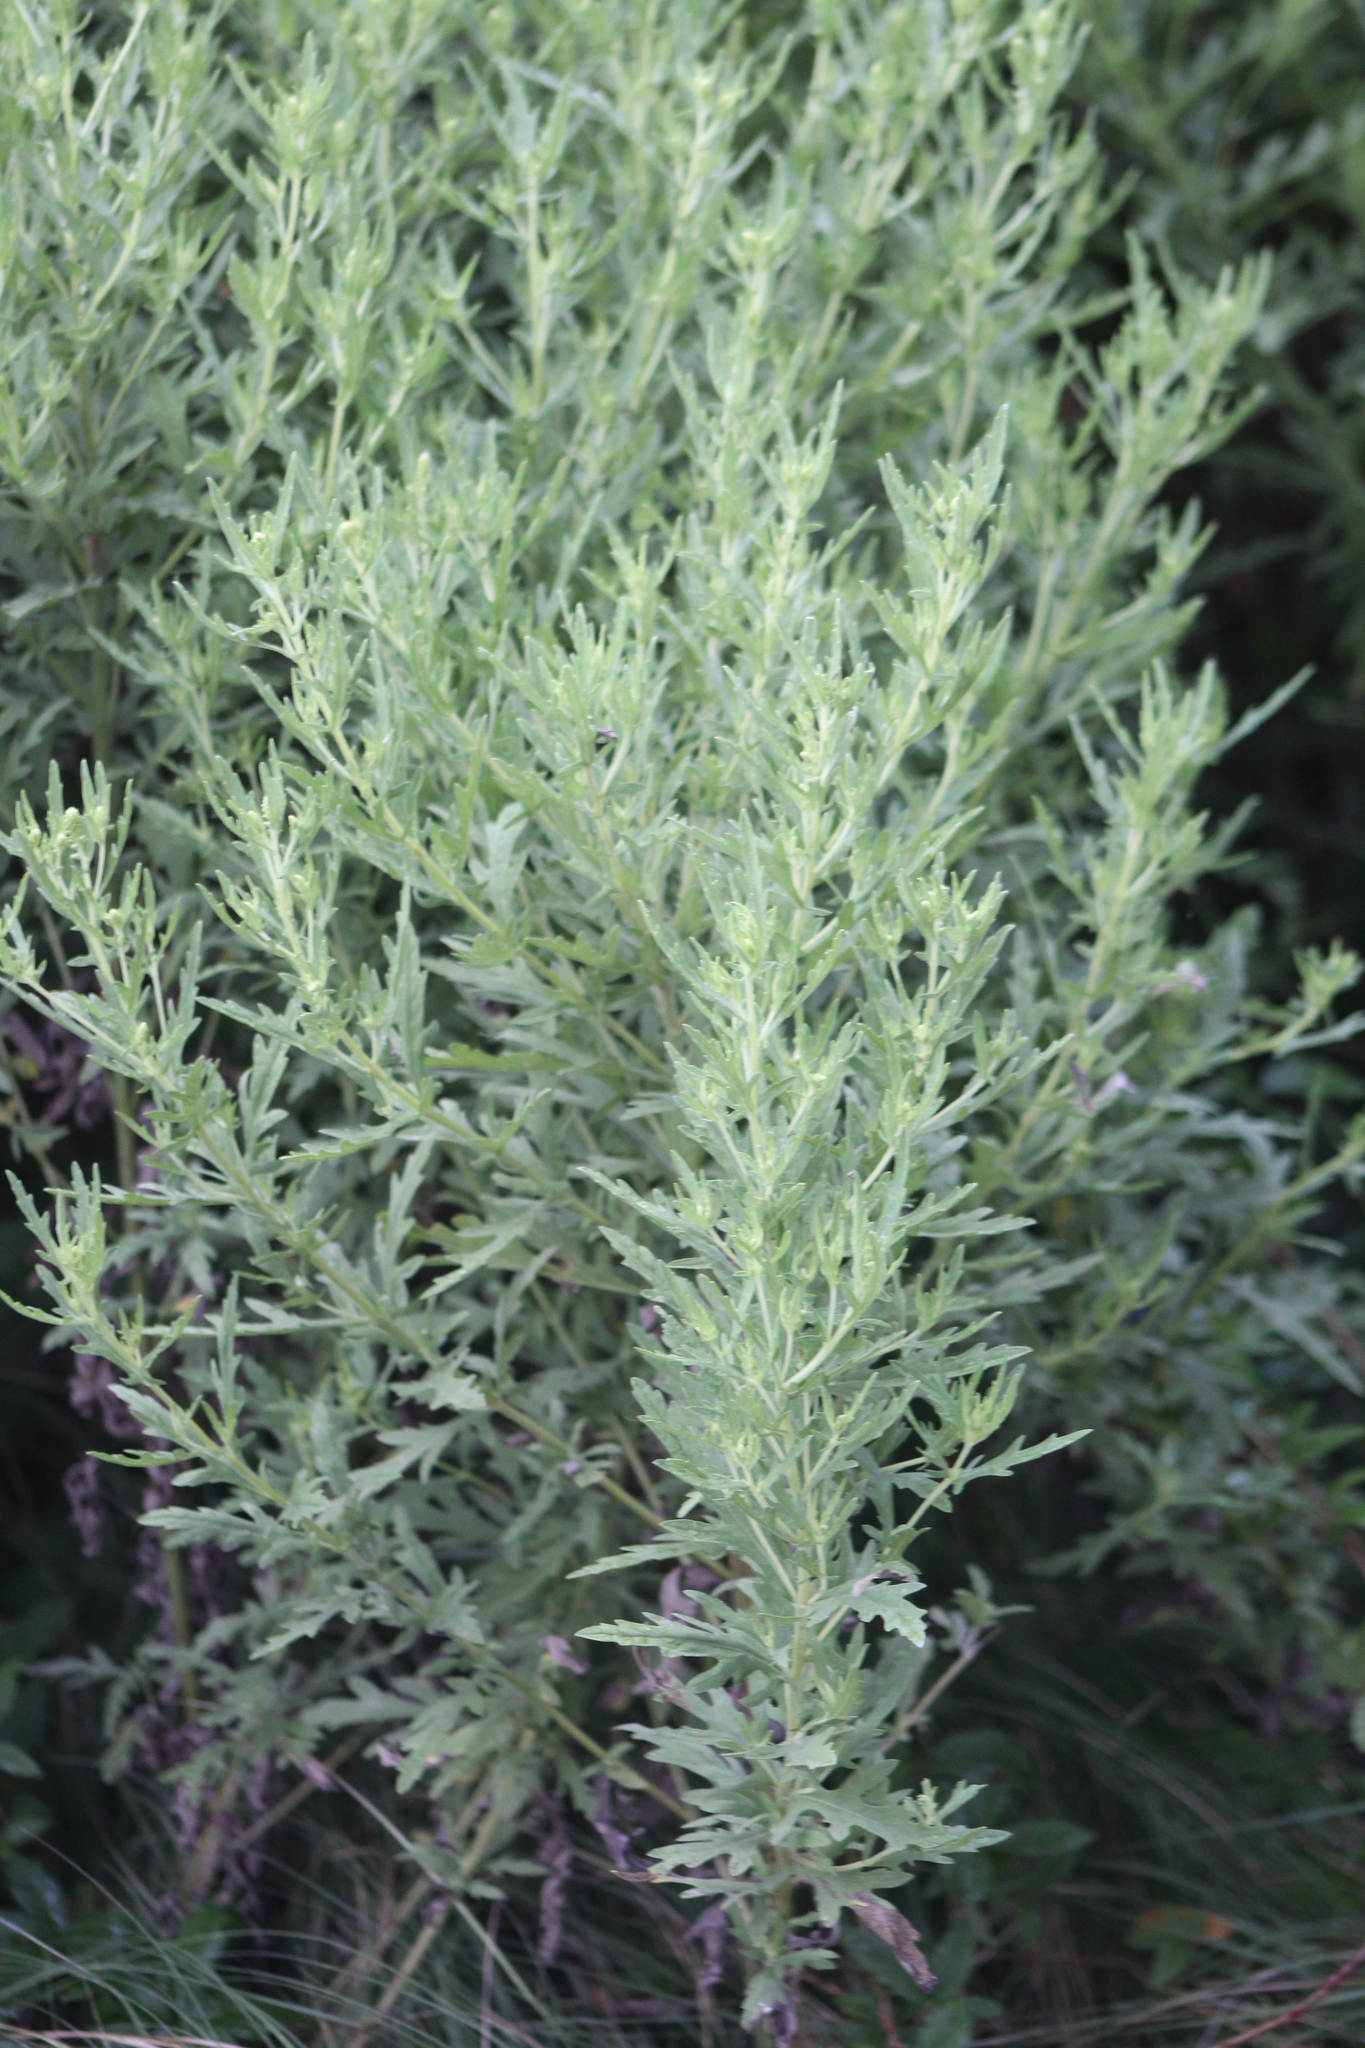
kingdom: Plantae
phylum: Tracheophyta
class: Magnoliopsida
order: Asterales
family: Asteraceae
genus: Ambrosia
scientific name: Ambrosia psilostachya
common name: Perennial ragweed
